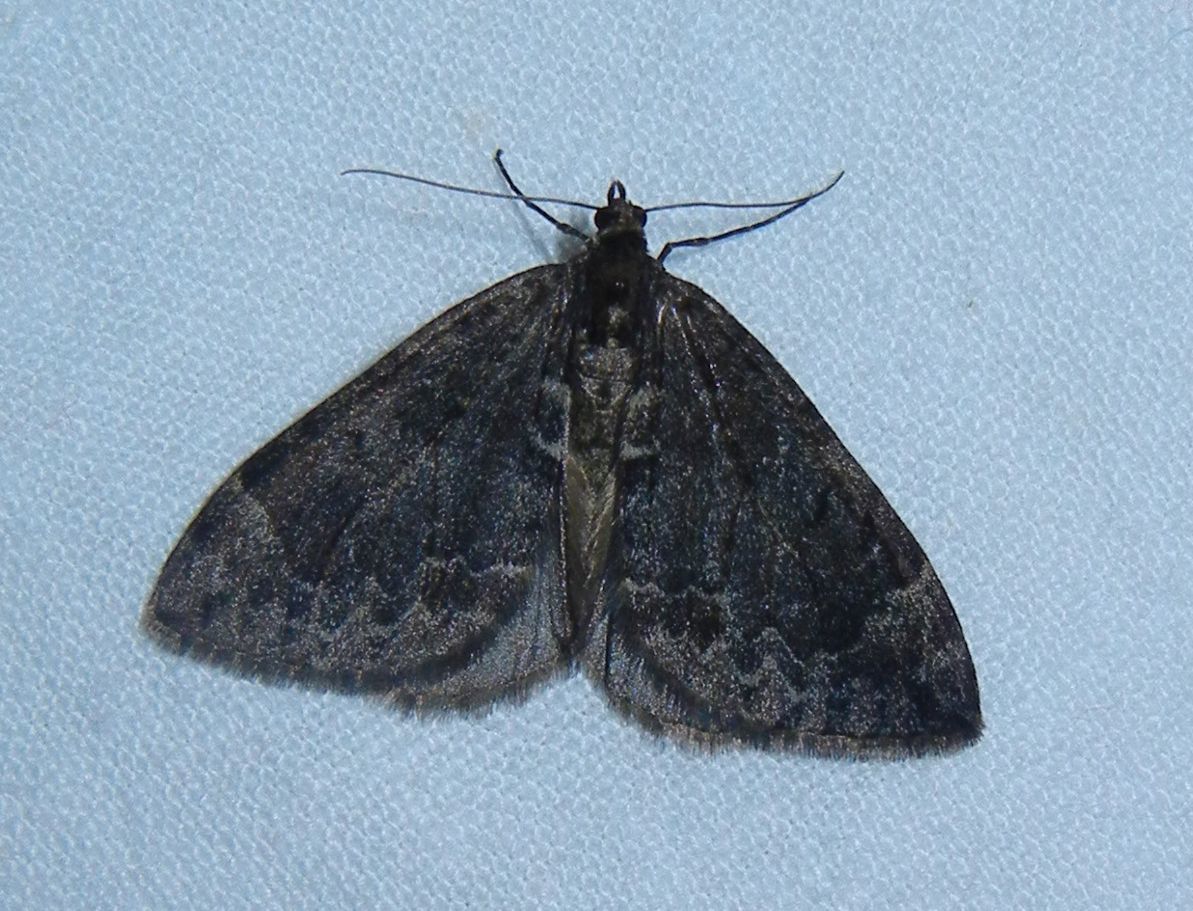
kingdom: Animalia
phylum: Arthropoda
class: Insecta
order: Lepidoptera
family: Geometridae
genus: Dysstroma
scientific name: Dysstroma truncata
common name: Common marbled carpet
